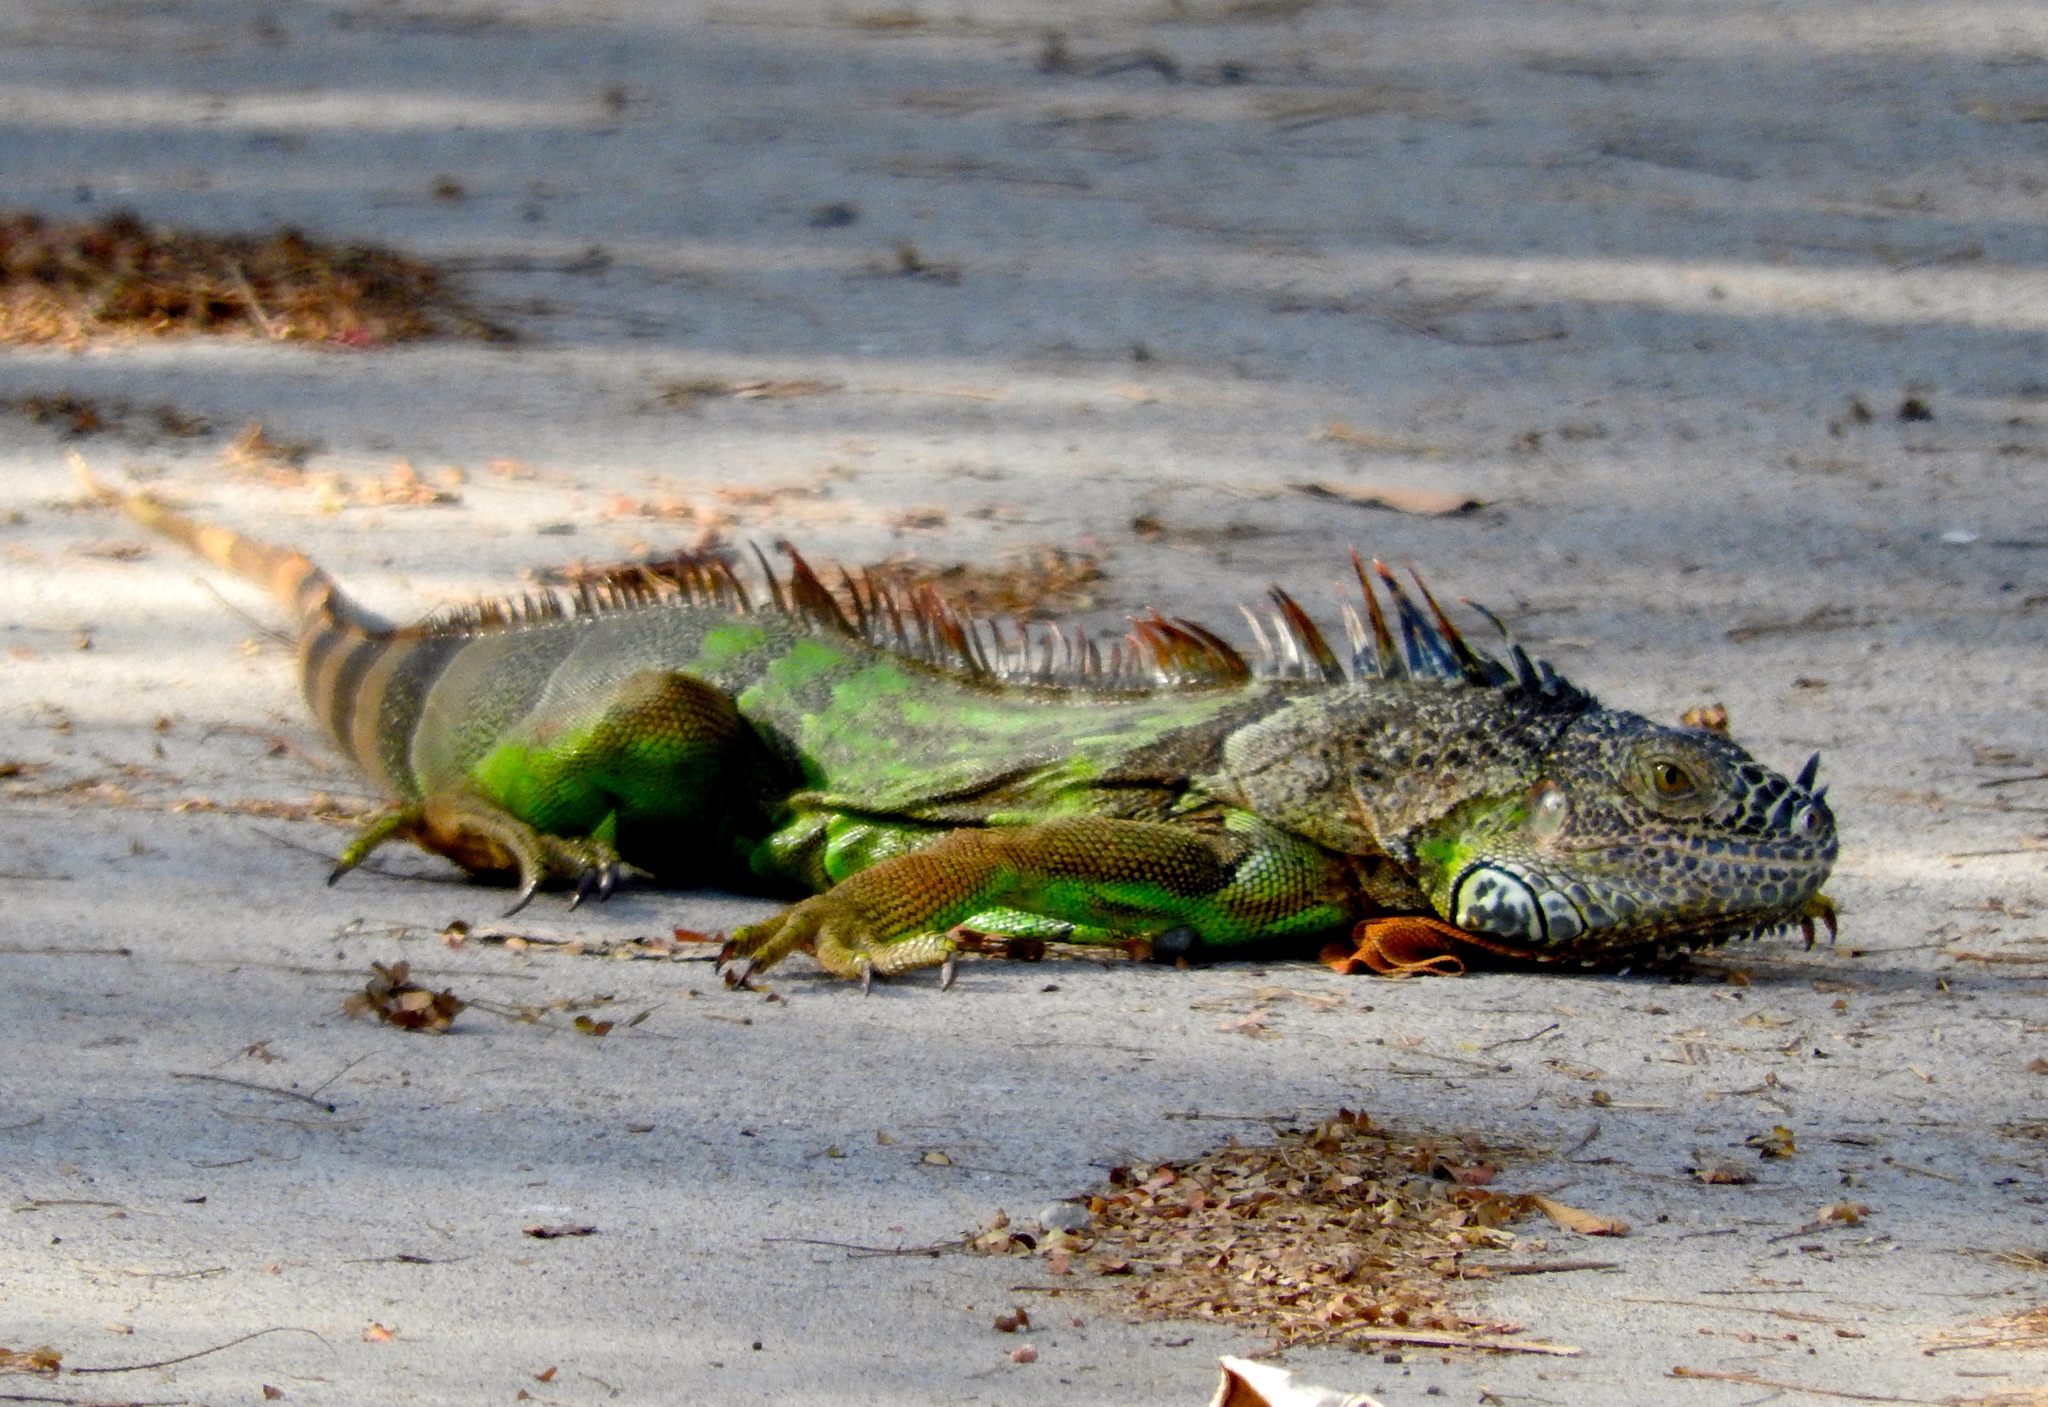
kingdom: Animalia
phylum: Chordata
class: Squamata
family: Iguanidae
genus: Iguana
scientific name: Iguana iguana
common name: Green iguana
